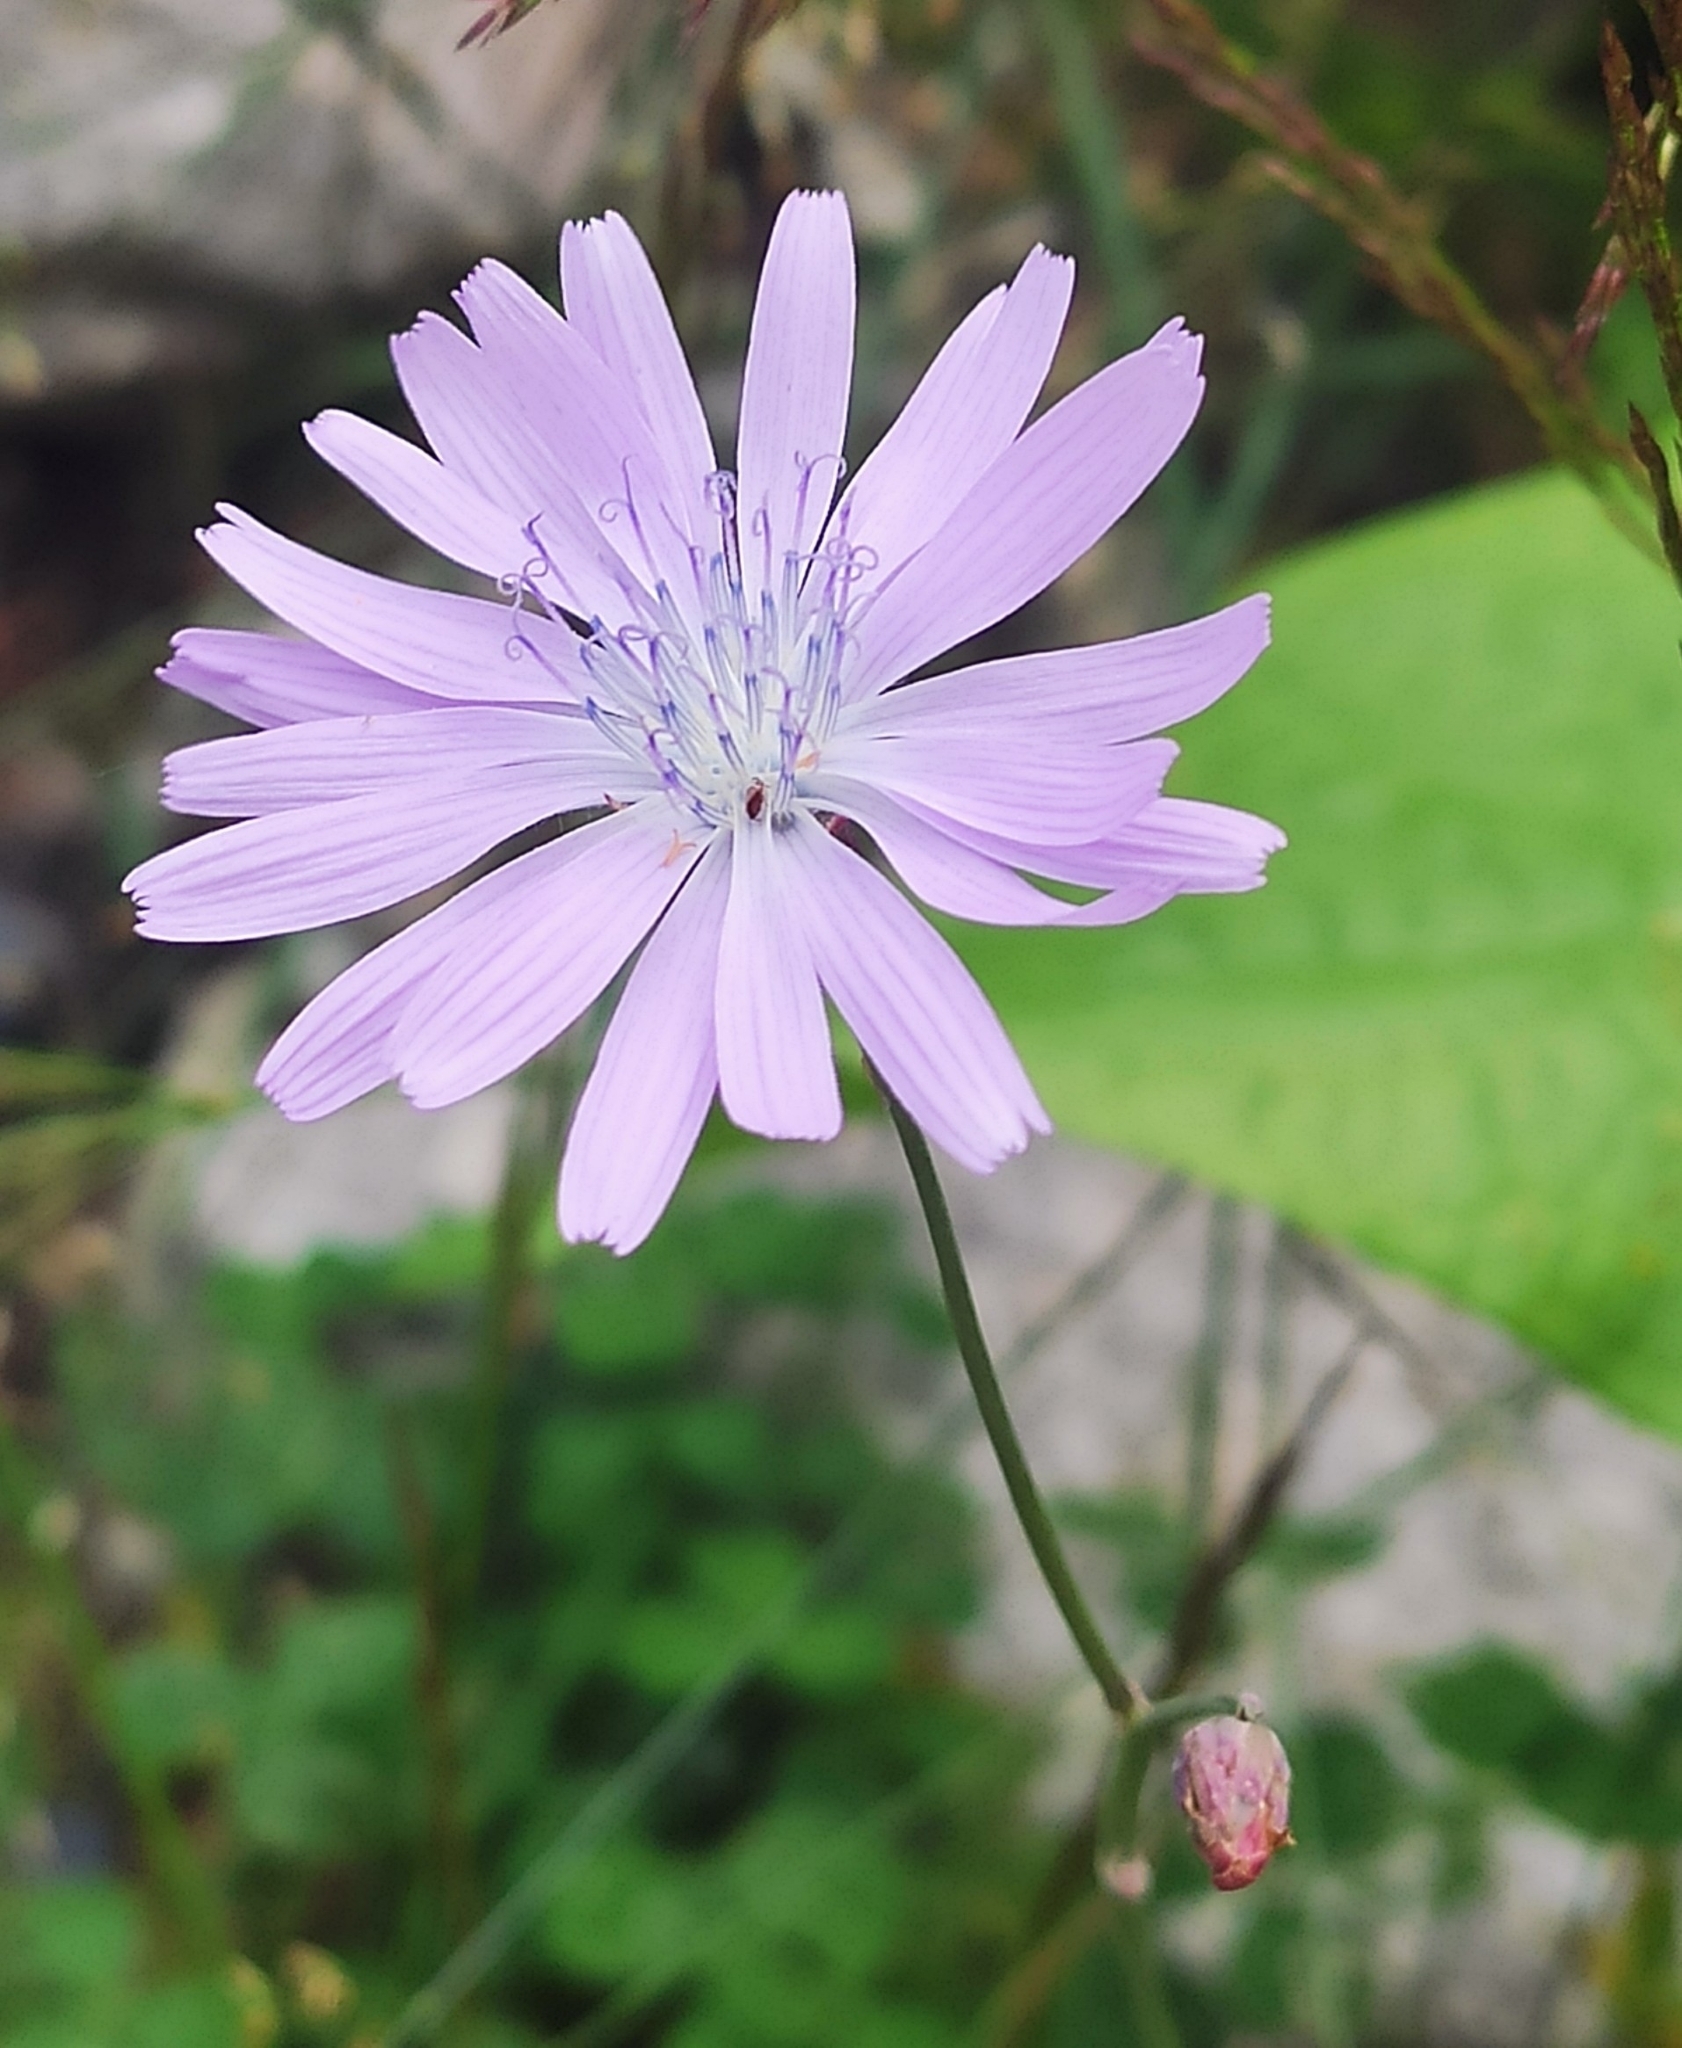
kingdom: Plantae
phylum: Tracheophyta
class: Magnoliopsida
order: Asterales
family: Asteraceae
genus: Lactuca
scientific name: Lactuca racemosa
